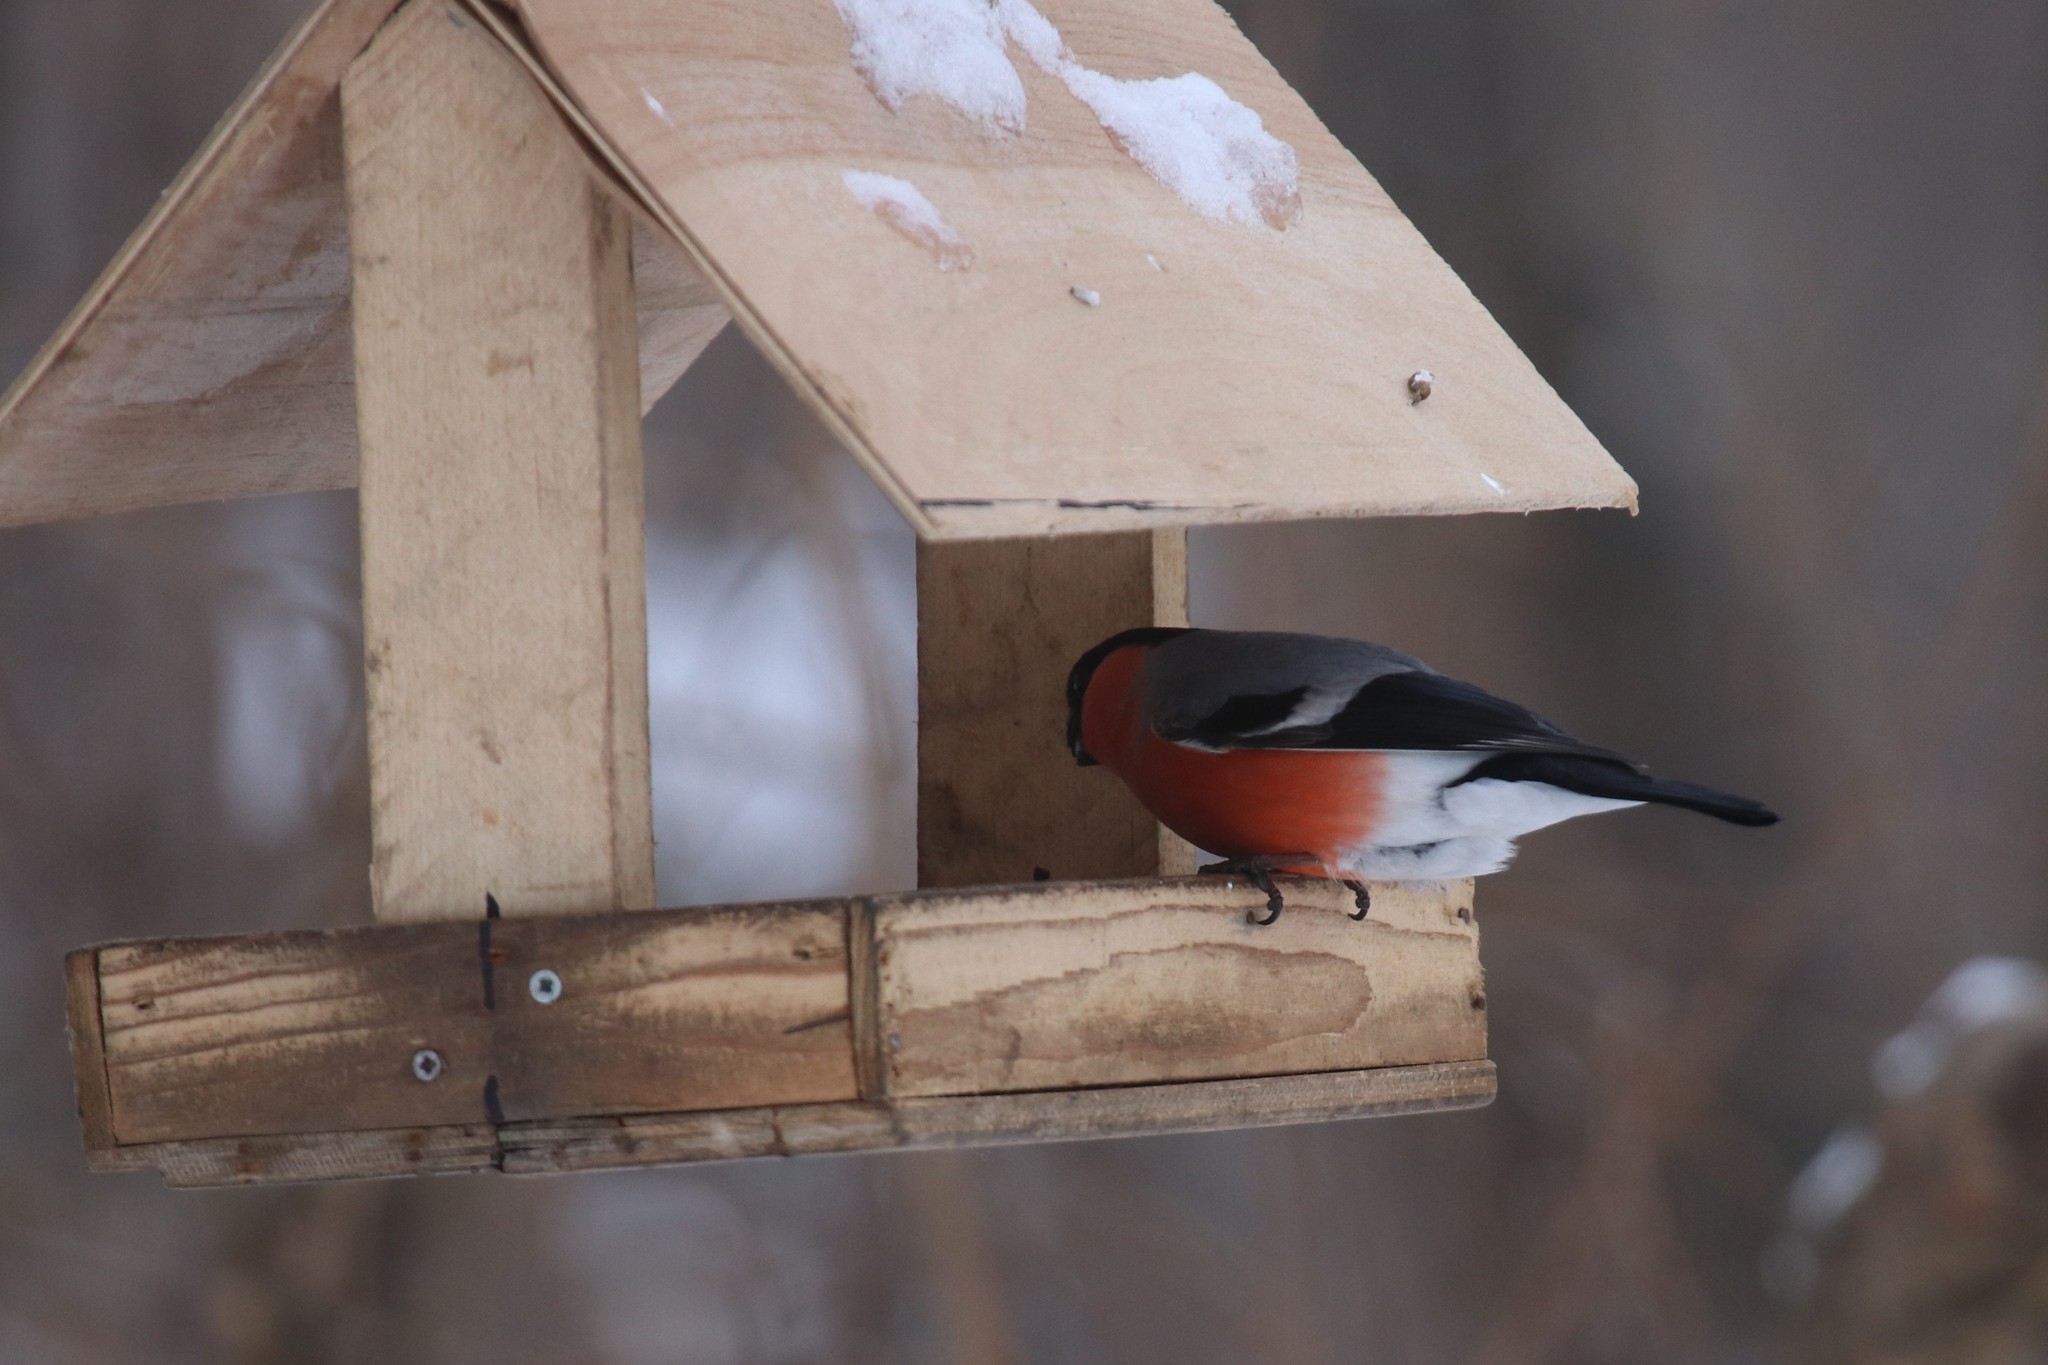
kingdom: Animalia
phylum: Chordata
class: Aves
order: Passeriformes
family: Fringillidae
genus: Pyrrhula
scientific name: Pyrrhula pyrrhula
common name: Eurasian bullfinch
